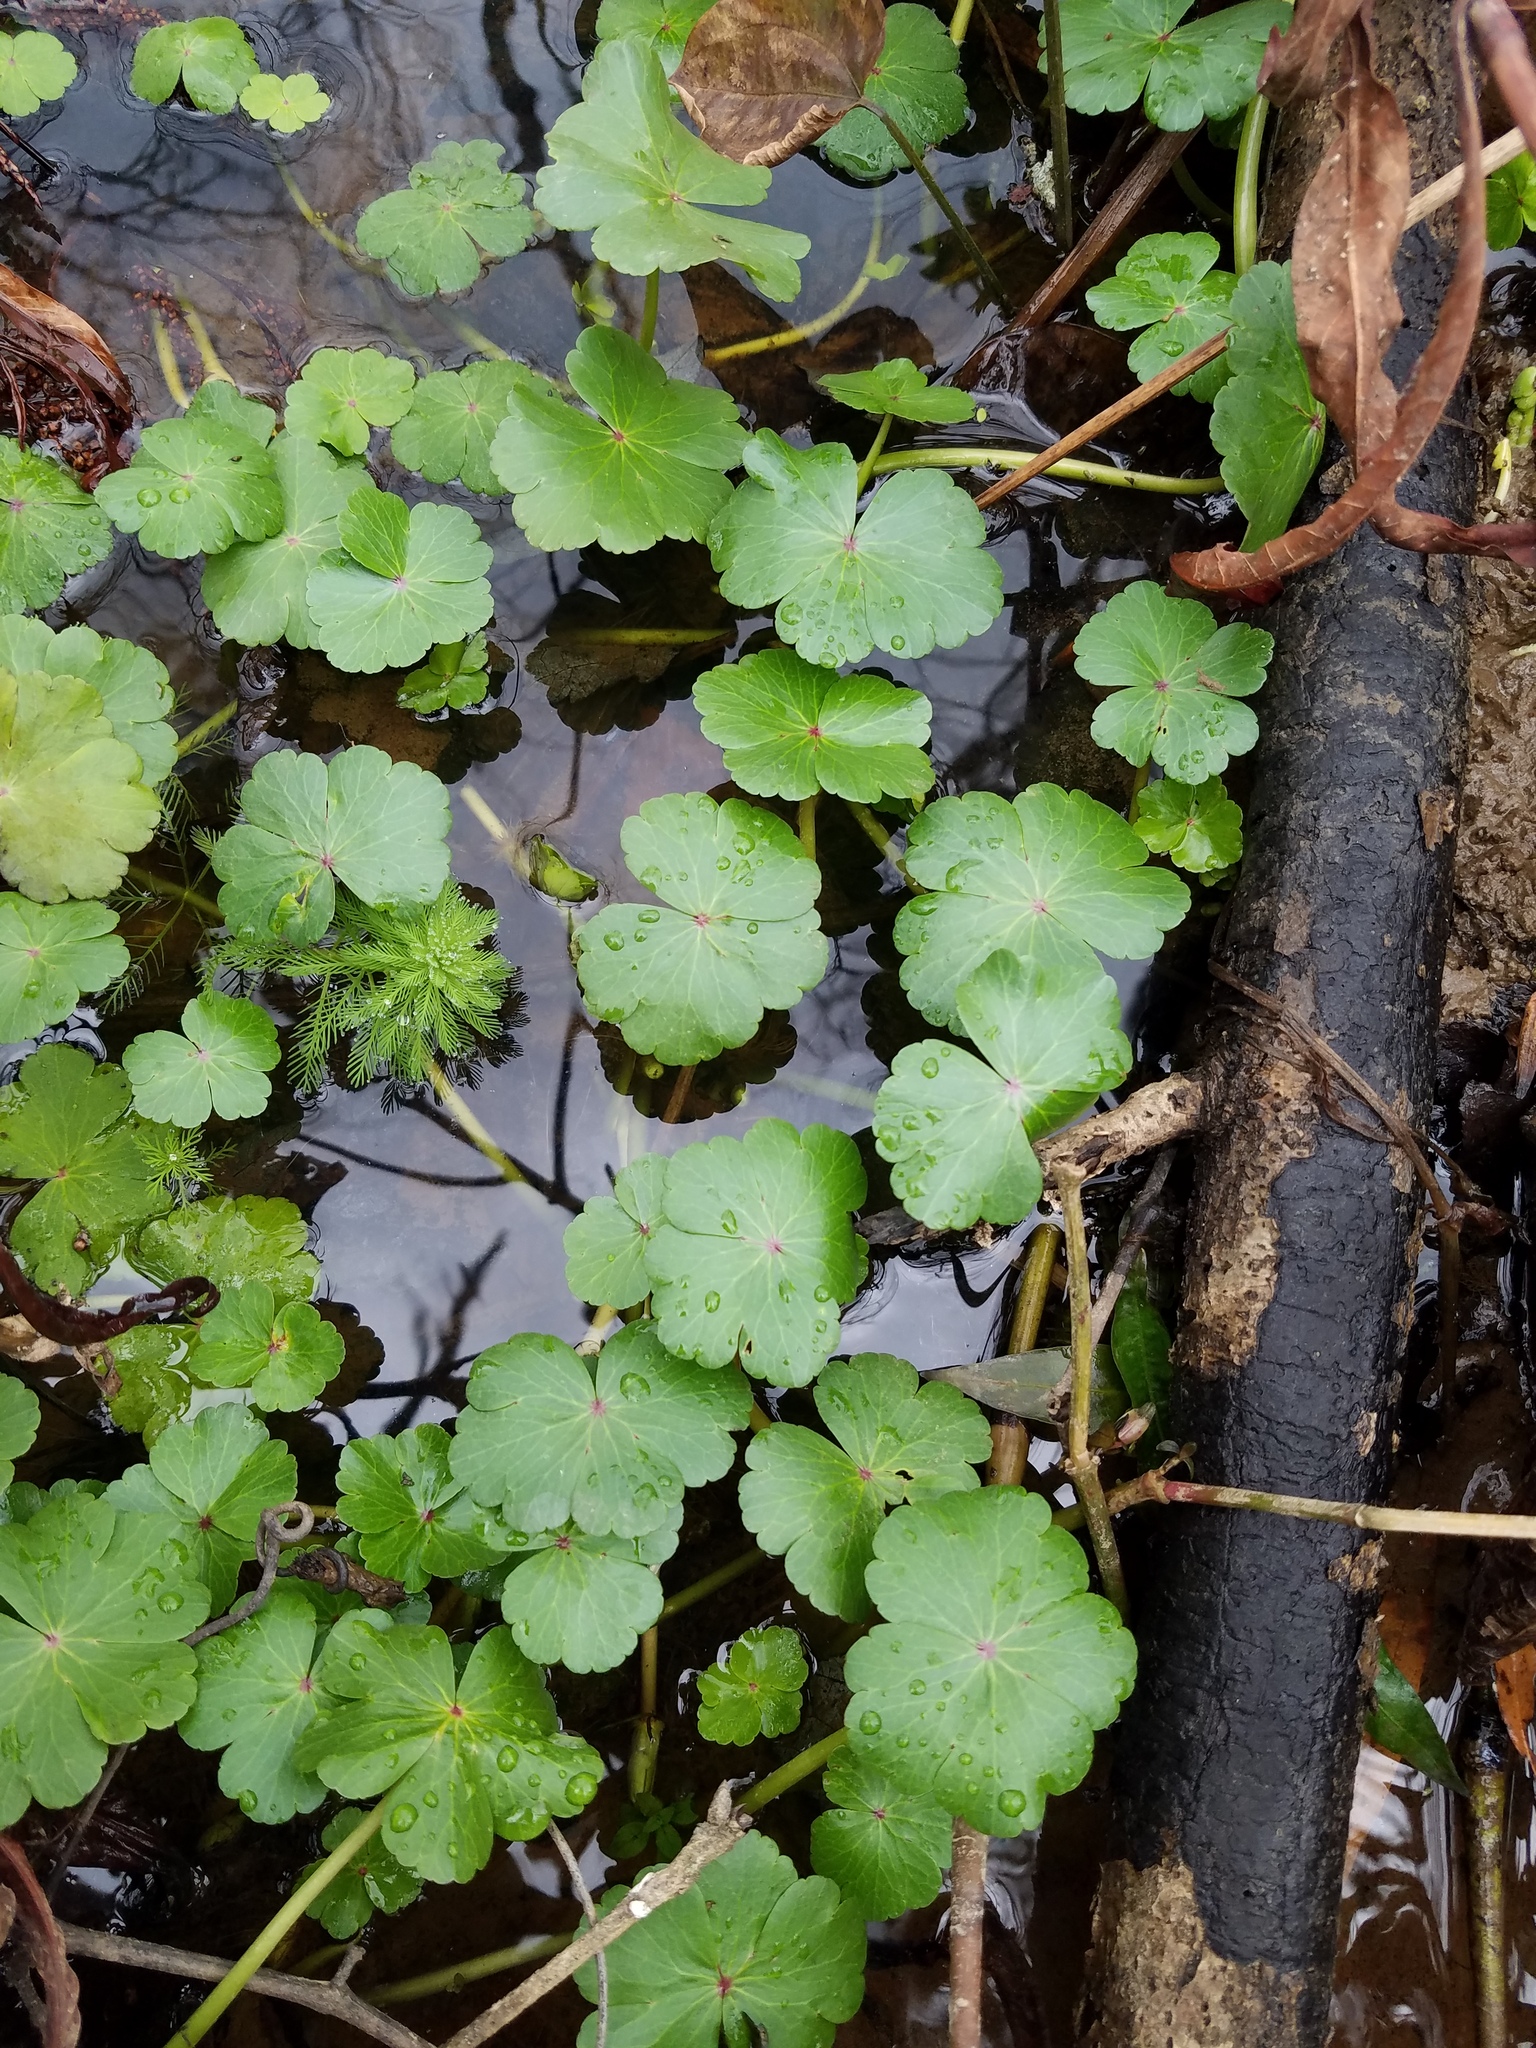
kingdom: Plantae
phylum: Tracheophyta
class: Magnoliopsida
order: Apiales
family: Araliaceae
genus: Hydrocotyle
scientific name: Hydrocotyle ranunculoides
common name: Floating pennywort
